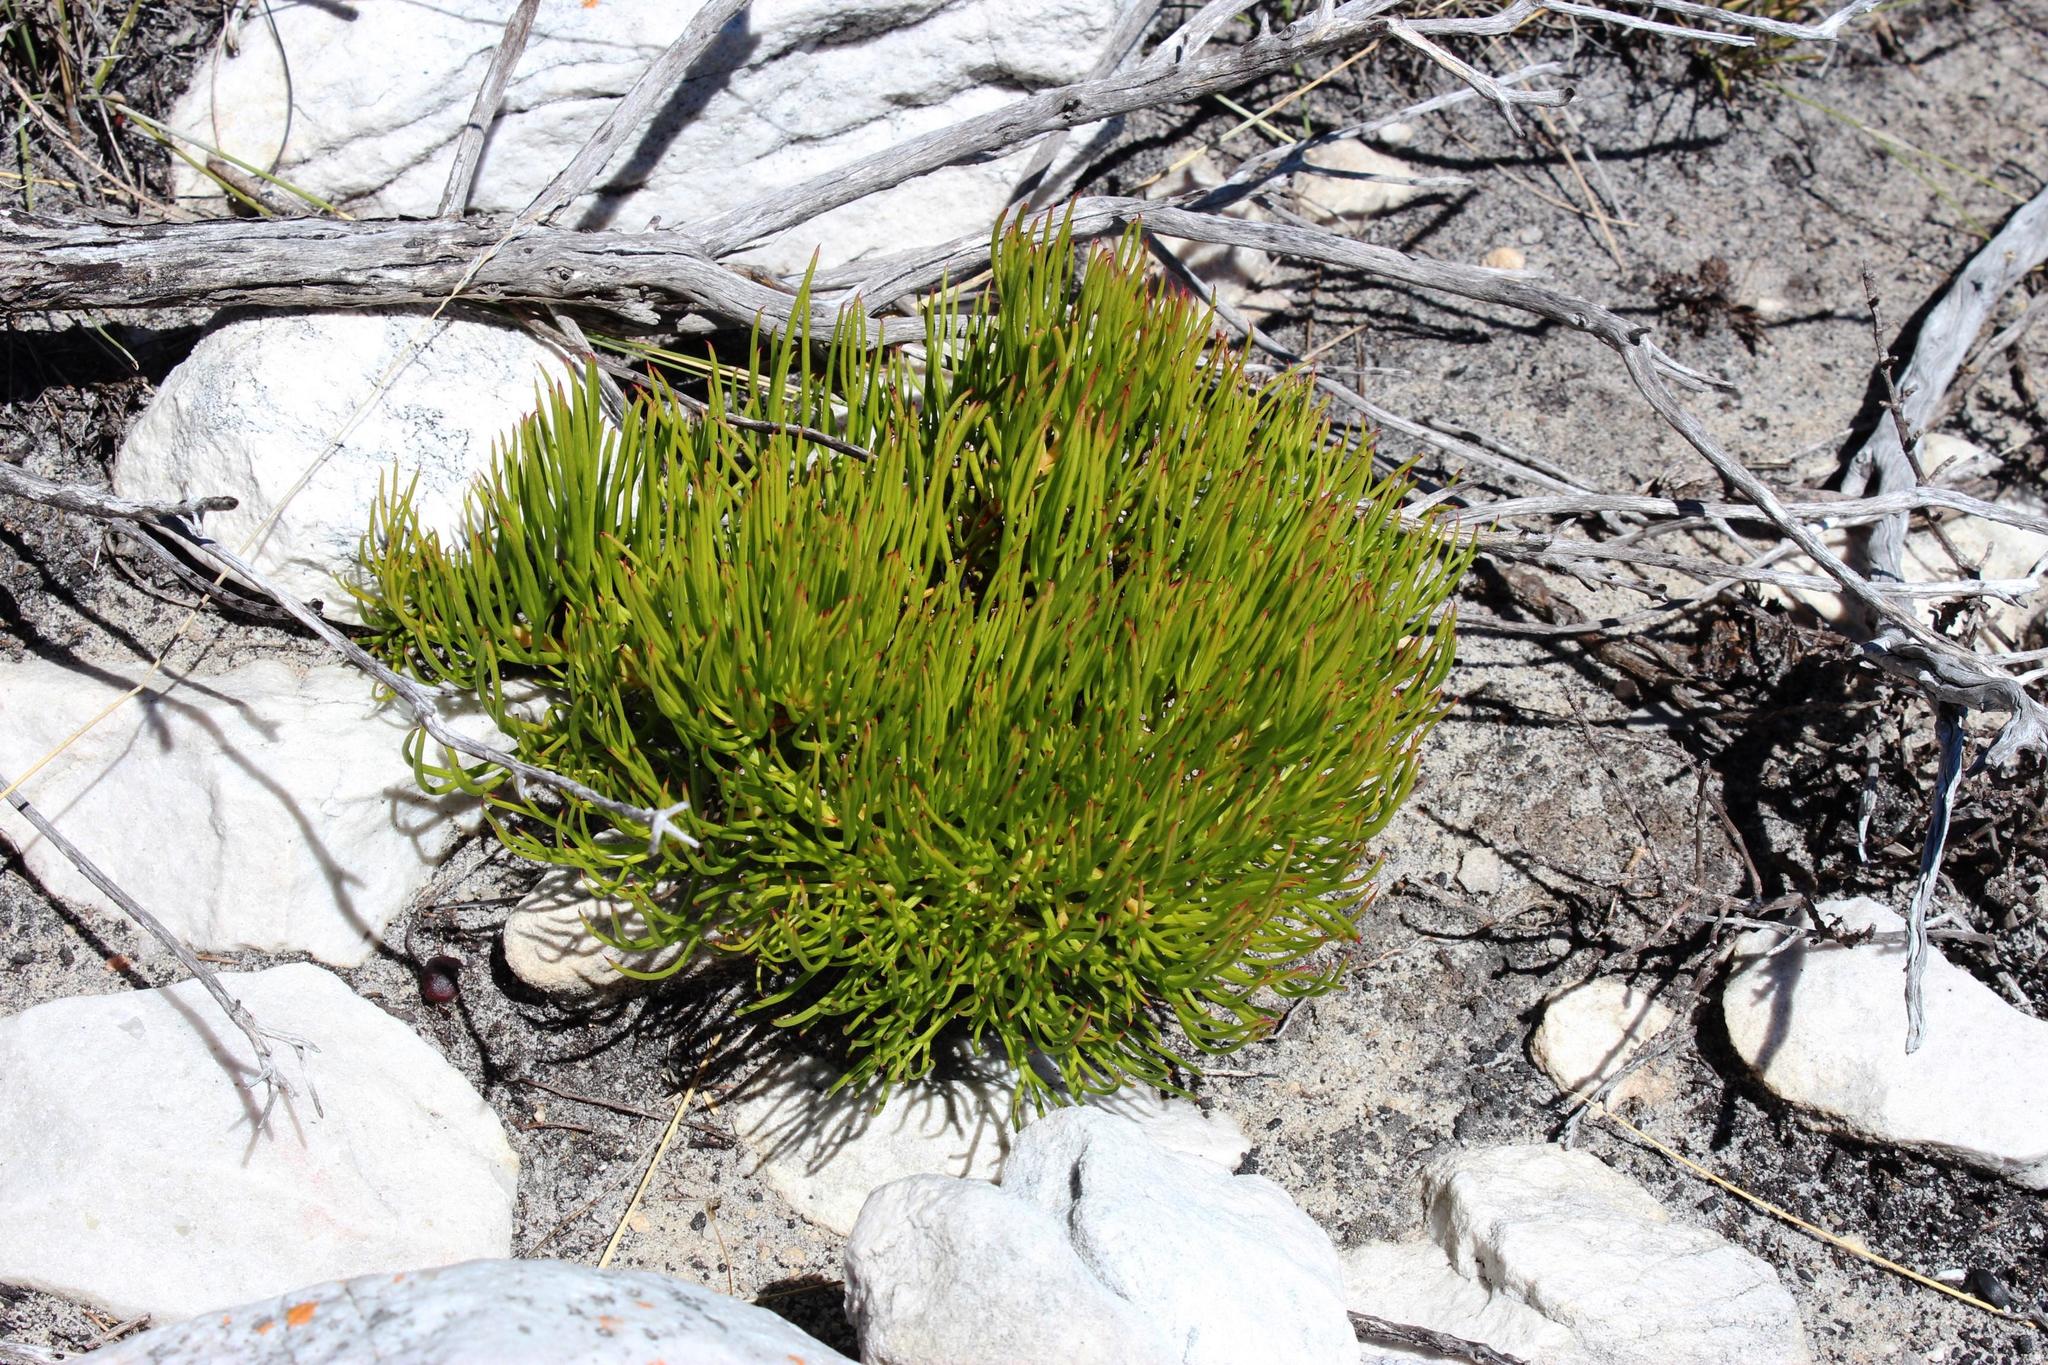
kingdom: Plantae
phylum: Tracheophyta
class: Magnoliopsida
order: Proteales
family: Proteaceae
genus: Serruria
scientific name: Serruria decumbens
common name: Peninsula spiderhead
